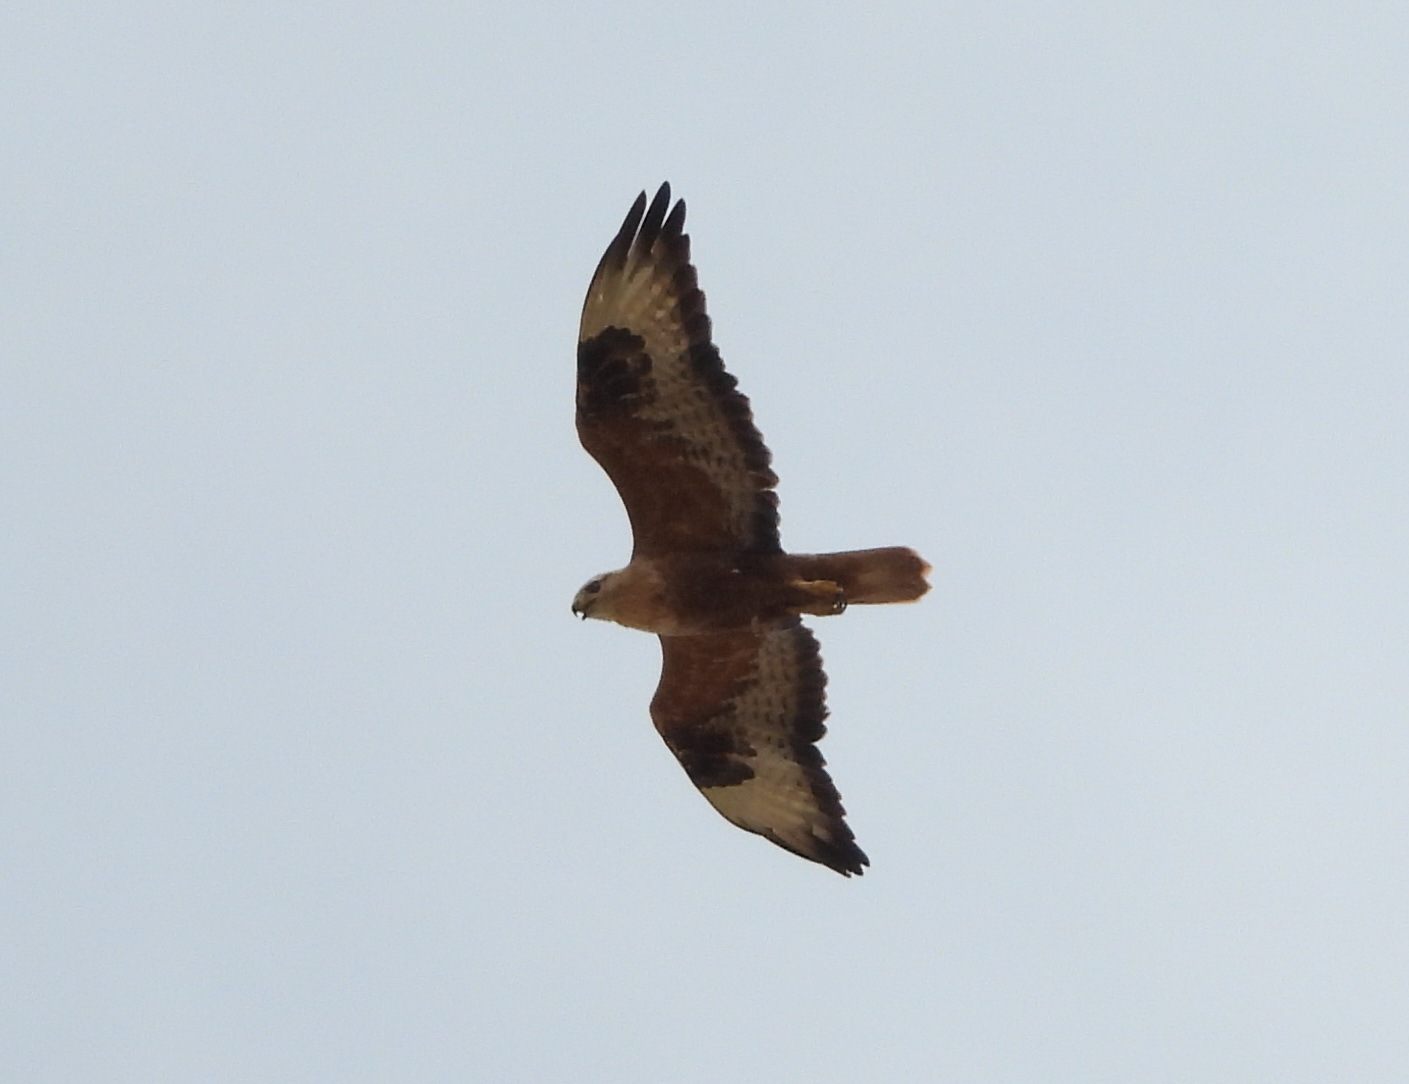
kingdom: Animalia
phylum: Chordata
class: Aves
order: Accipitriformes
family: Accipitridae
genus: Buteo
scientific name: Buteo rufinus
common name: Long-legged buzzard
